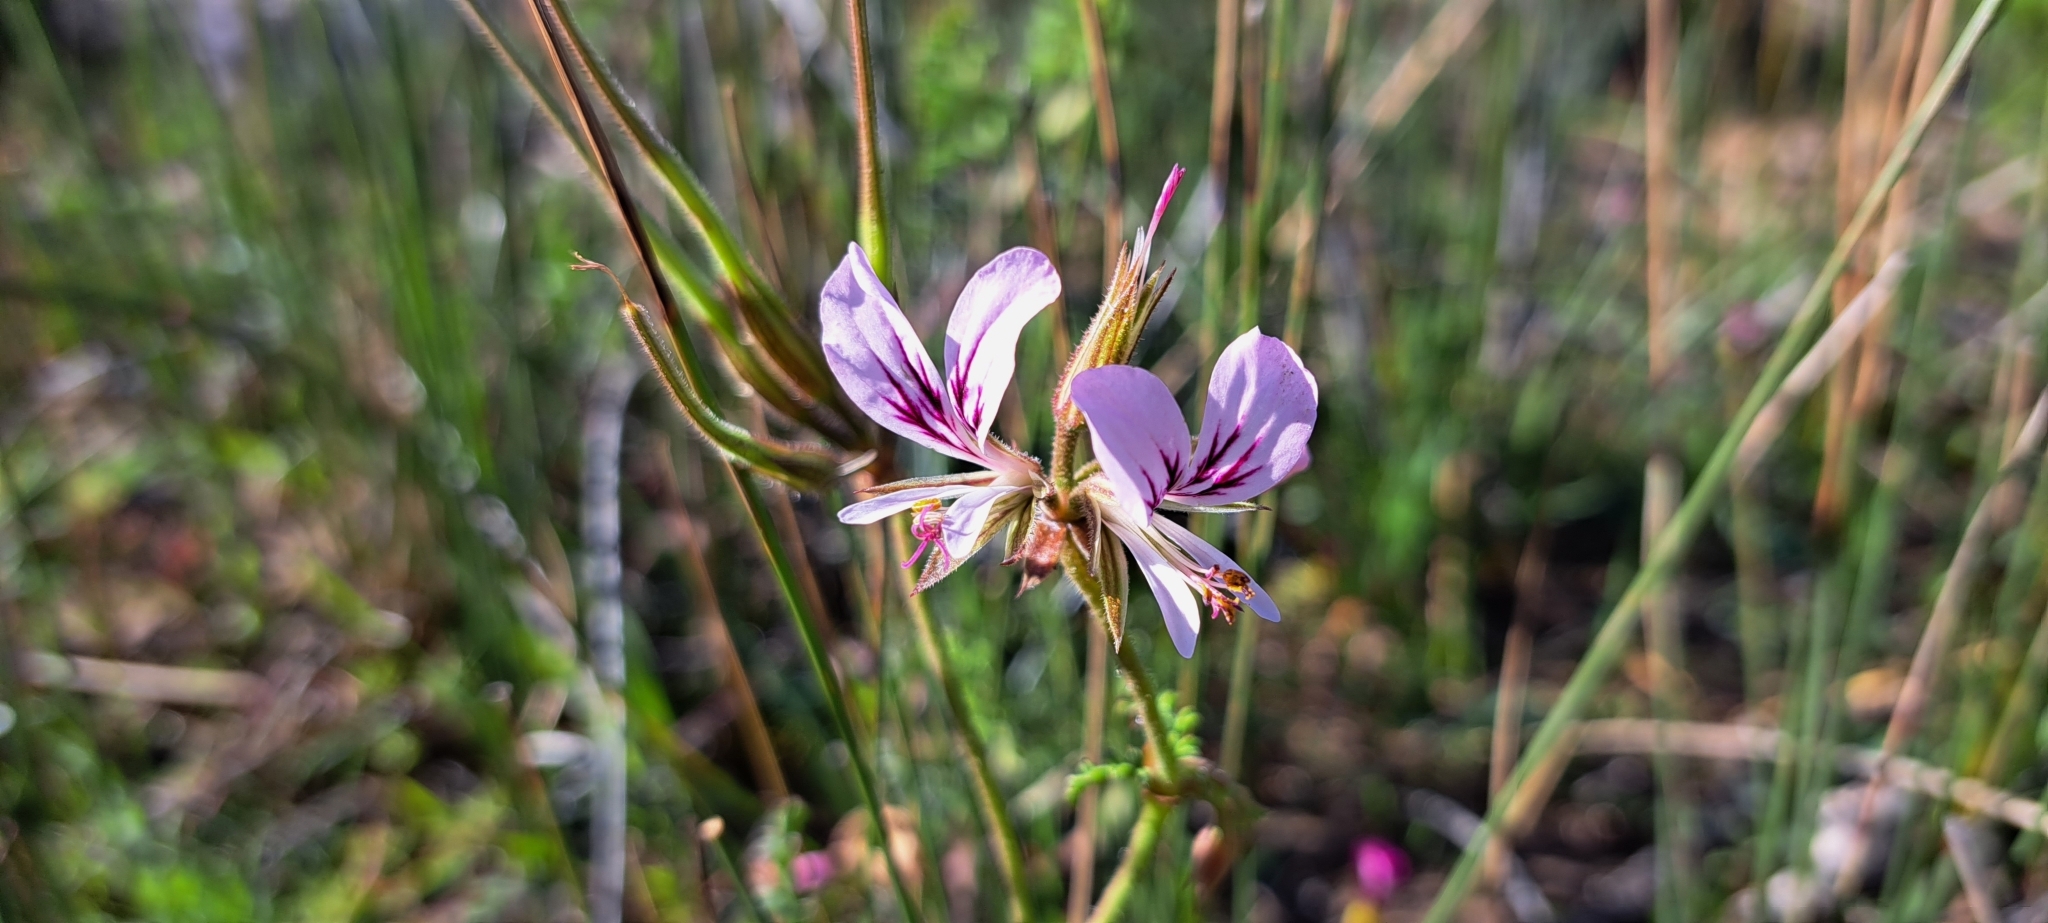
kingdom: Plantae
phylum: Tracheophyta
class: Magnoliopsida
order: Geraniales
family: Geraniaceae
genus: Pelargonium
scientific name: Pelargonium myrrhifolium
